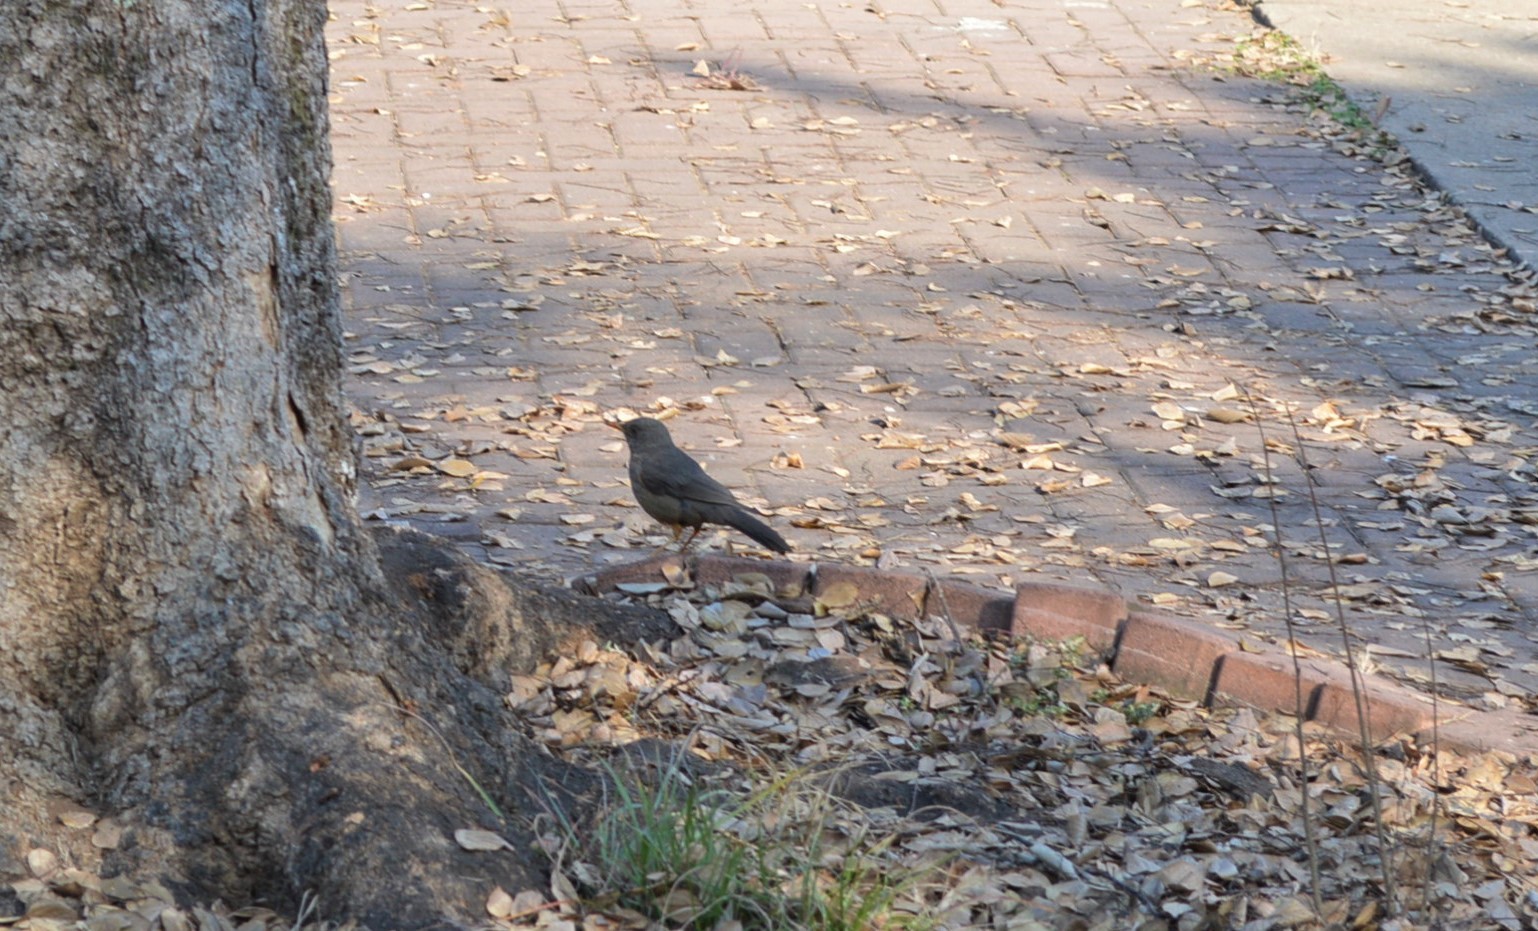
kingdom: Animalia
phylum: Chordata
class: Aves
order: Passeriformes
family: Turdidae
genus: Turdus
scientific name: Turdus smithi
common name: Karoo thrush
